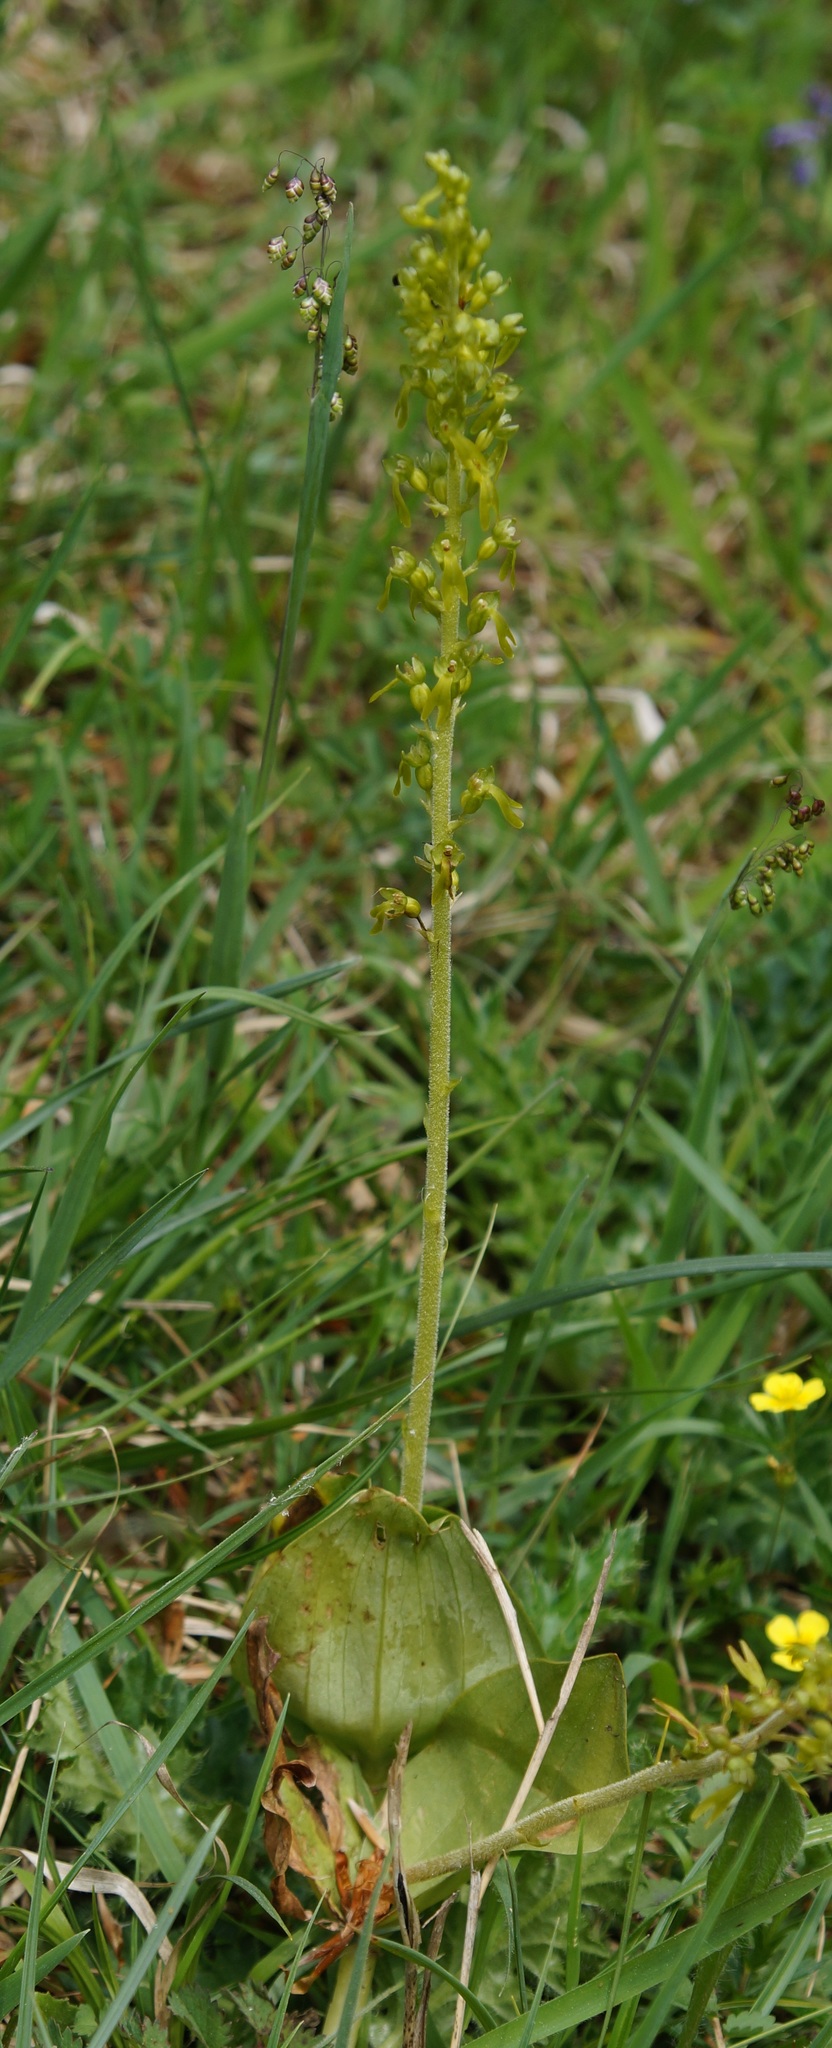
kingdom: Plantae
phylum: Tracheophyta
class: Liliopsida
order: Asparagales
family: Orchidaceae
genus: Neottia
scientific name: Neottia ovata
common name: Common twayblade
